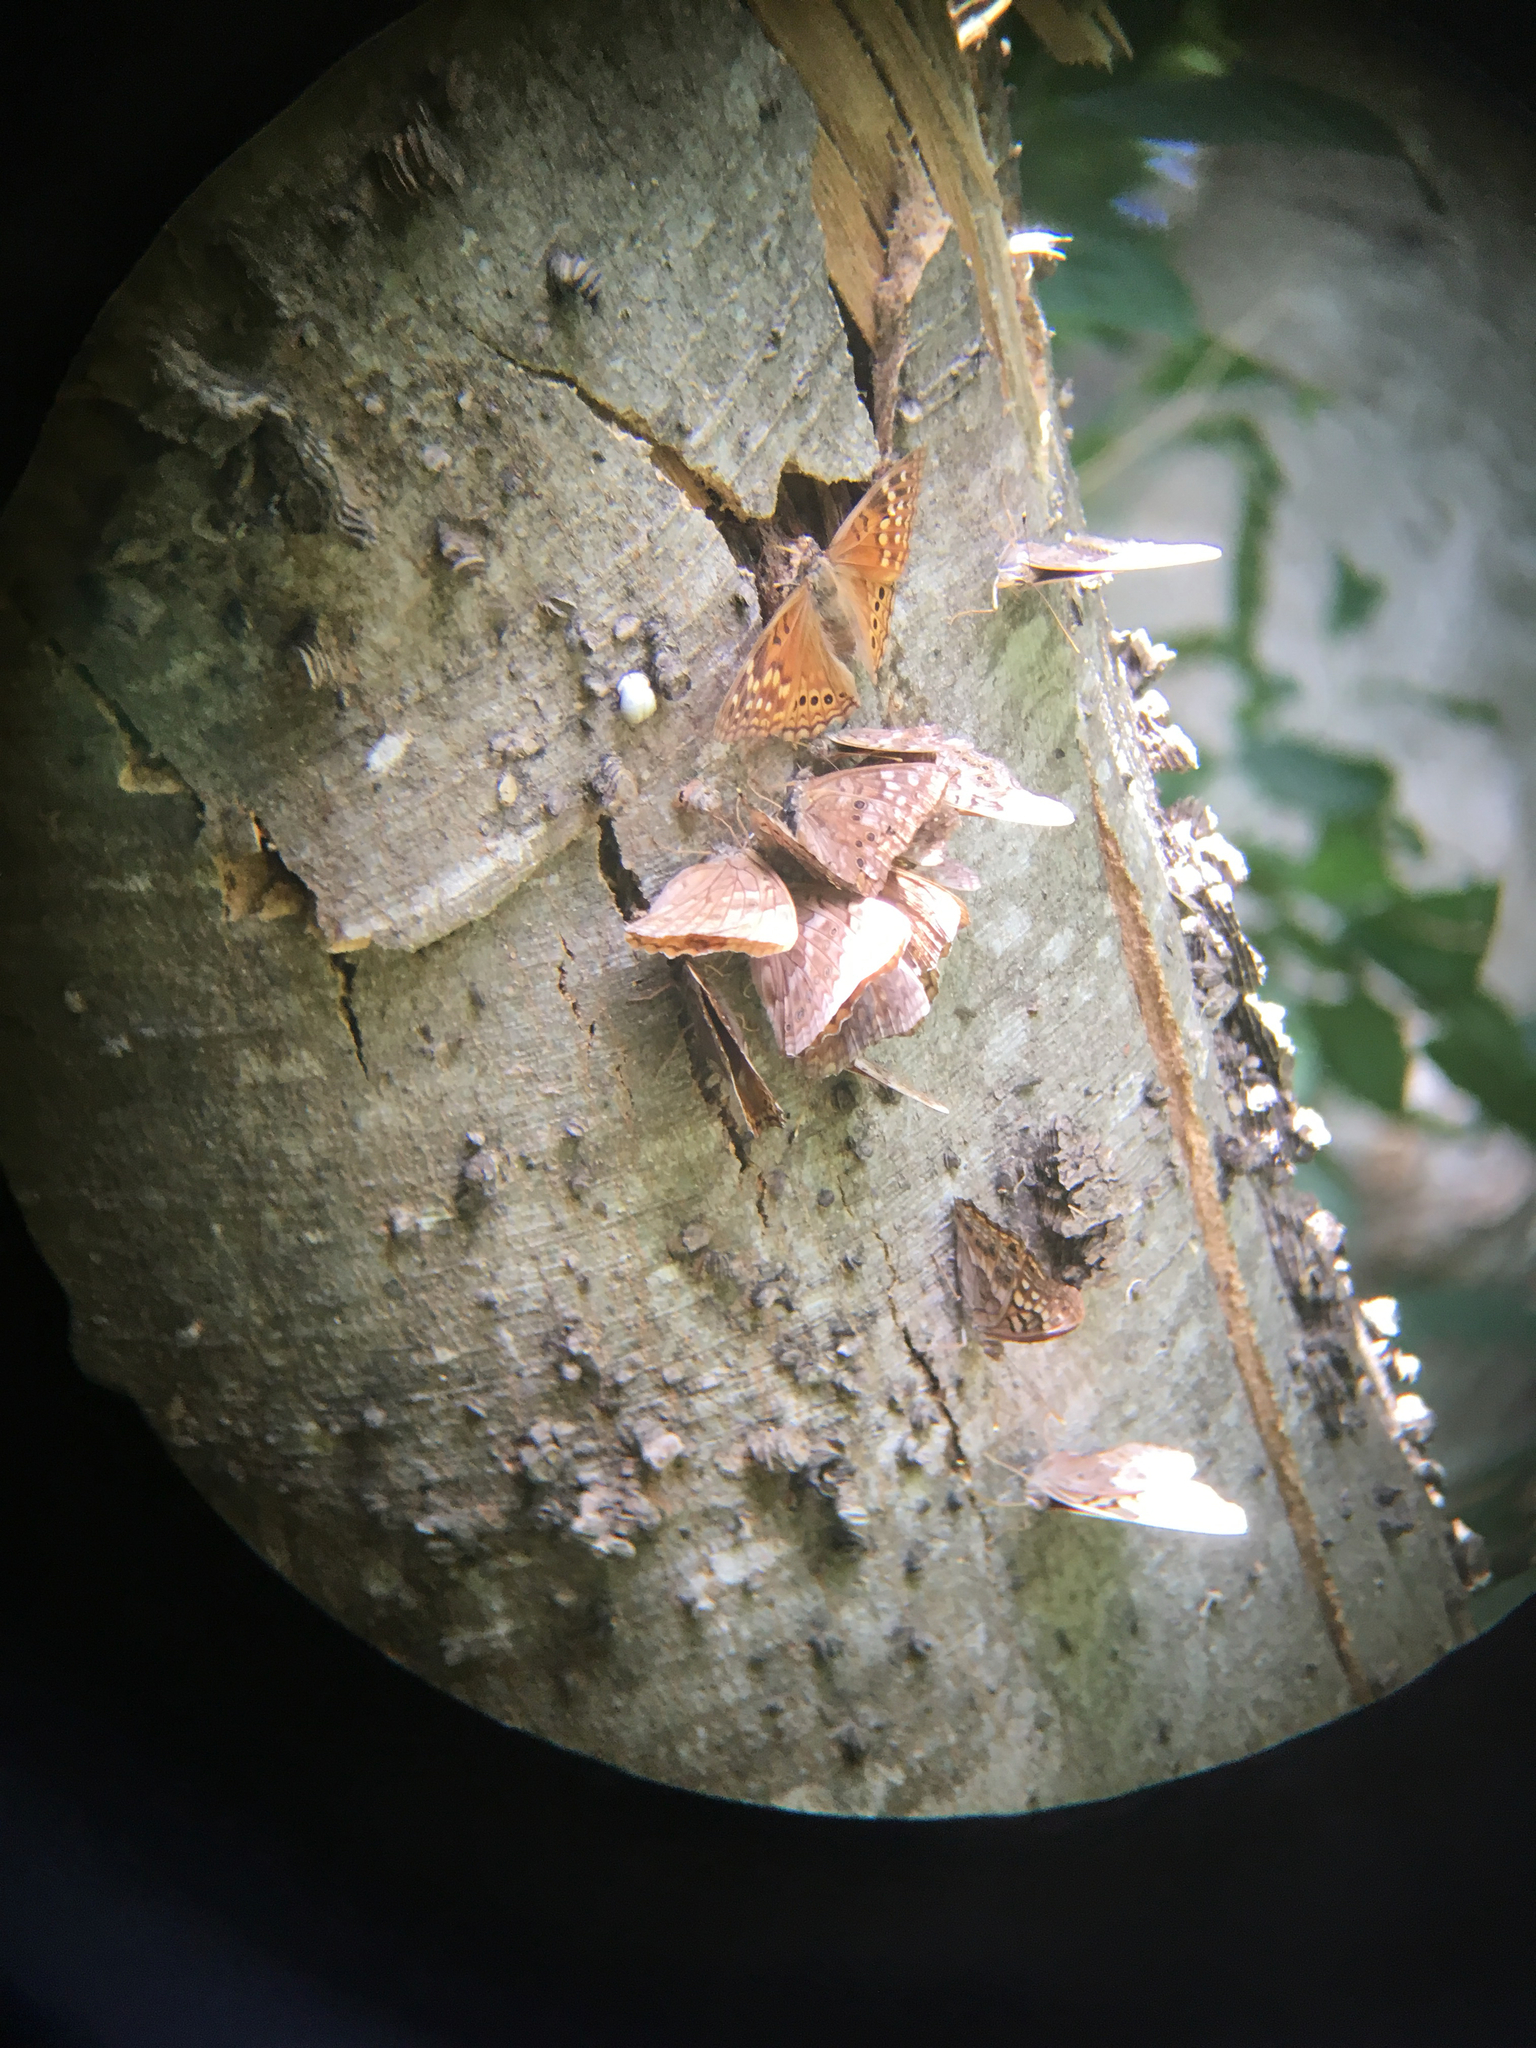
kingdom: Animalia
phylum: Arthropoda
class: Insecta
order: Lepidoptera
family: Nymphalidae
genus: Asterocampa
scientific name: Asterocampa clyton
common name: Tawny emperor
